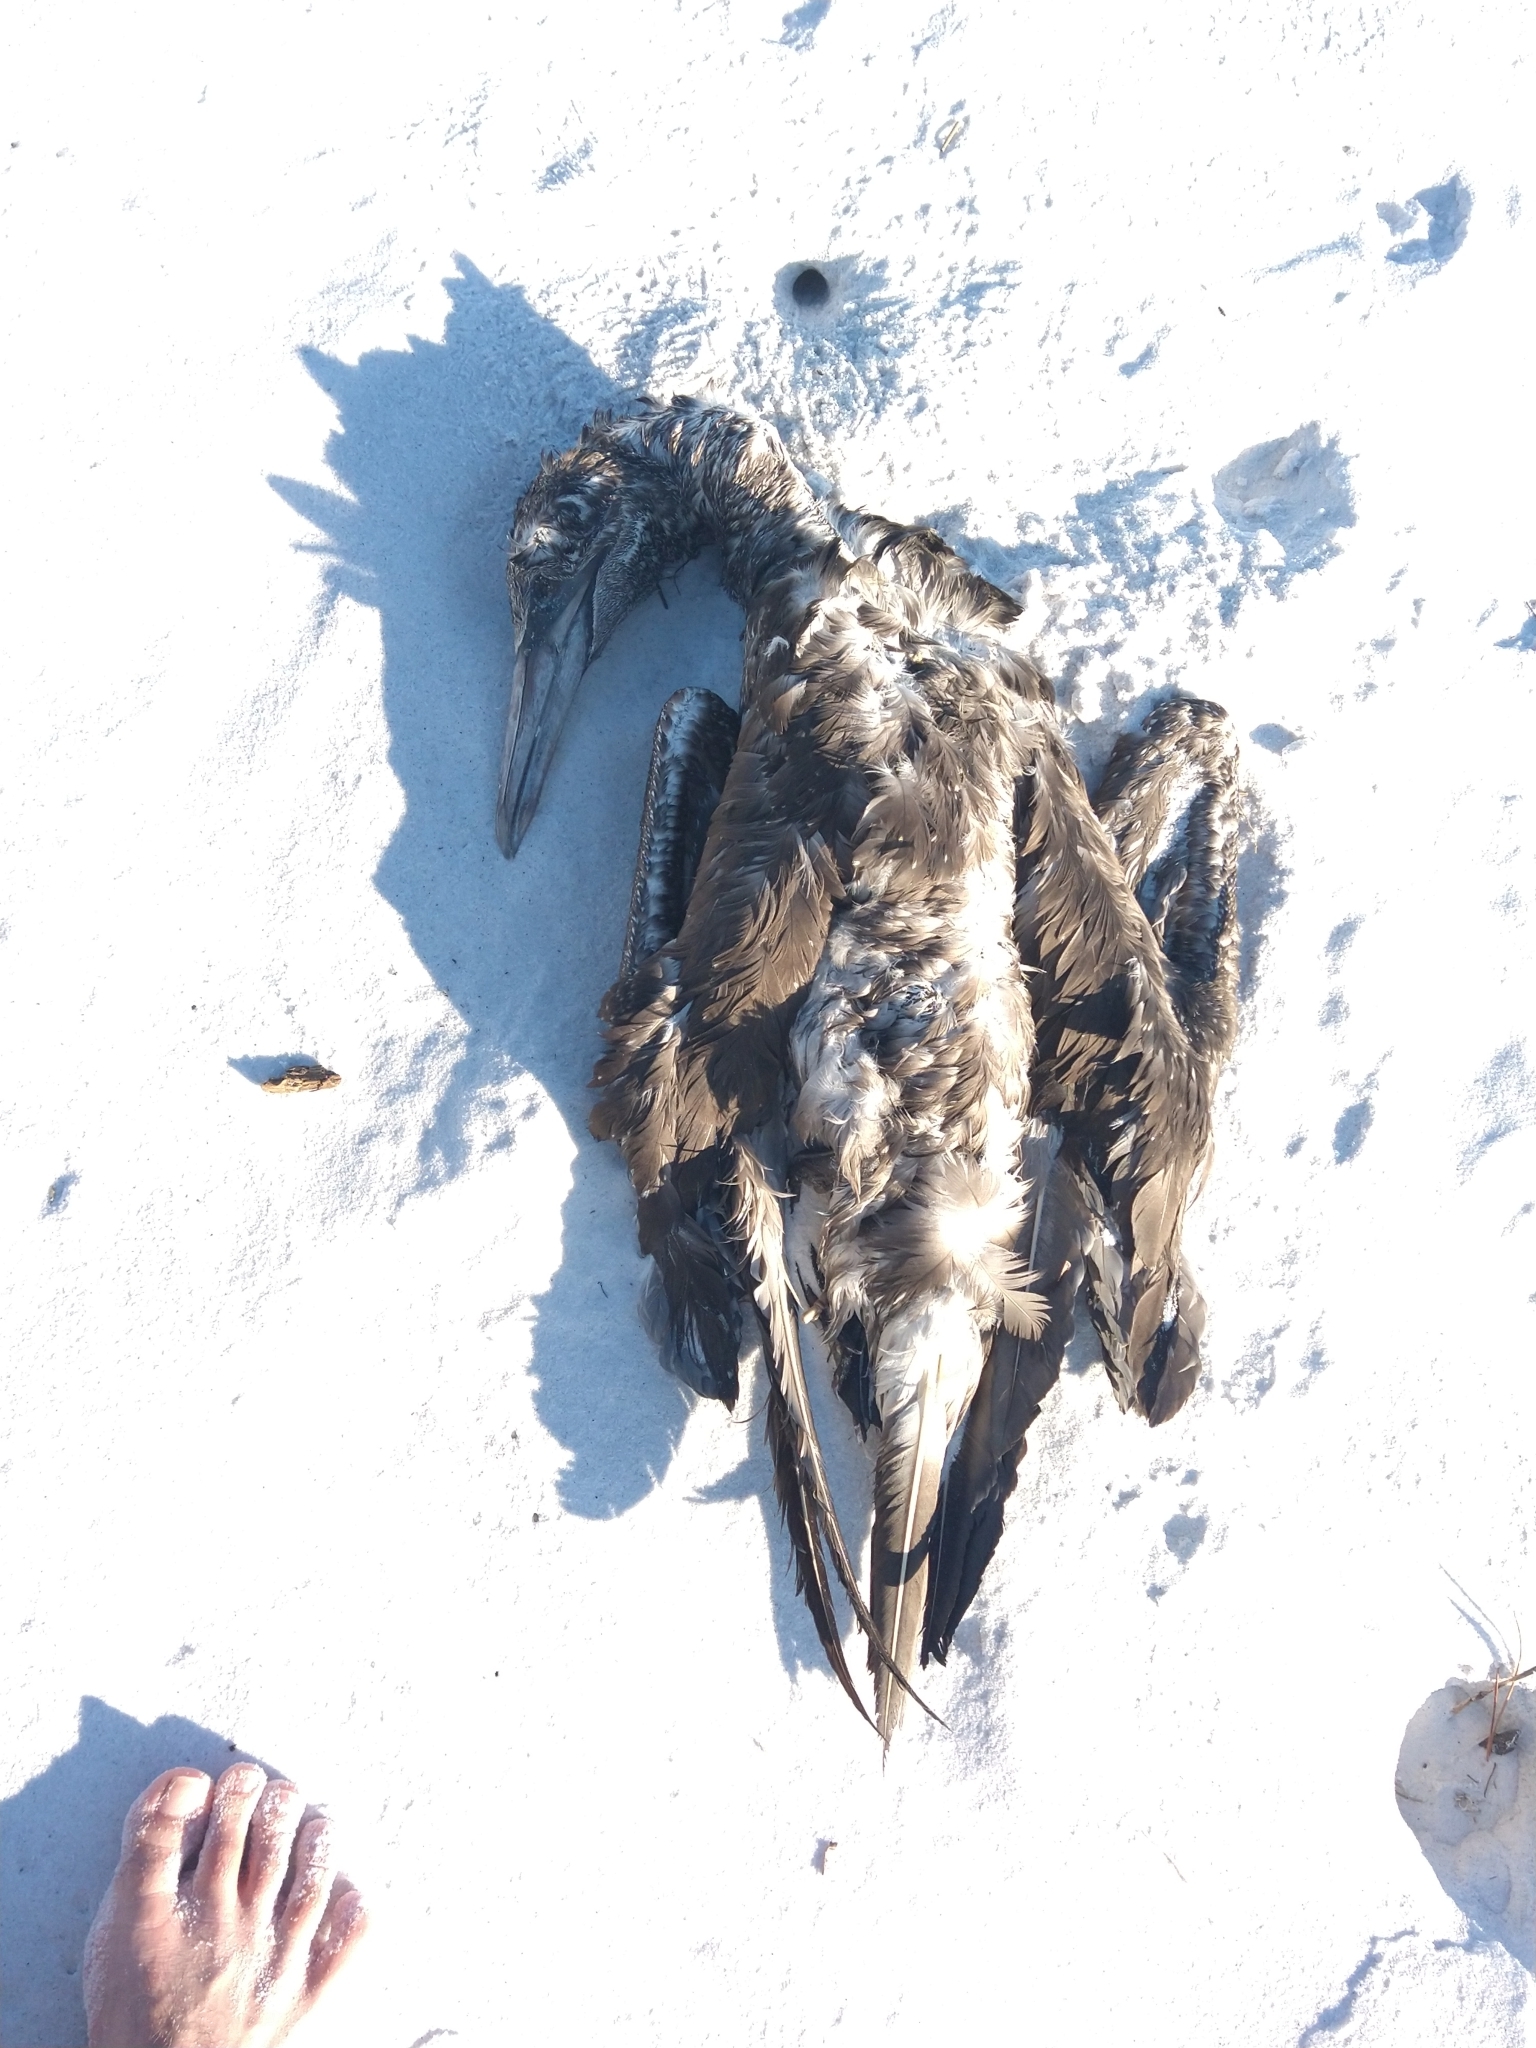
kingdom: Animalia
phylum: Chordata
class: Aves
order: Suliformes
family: Sulidae
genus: Morus
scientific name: Morus bassanus
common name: Northern gannet
